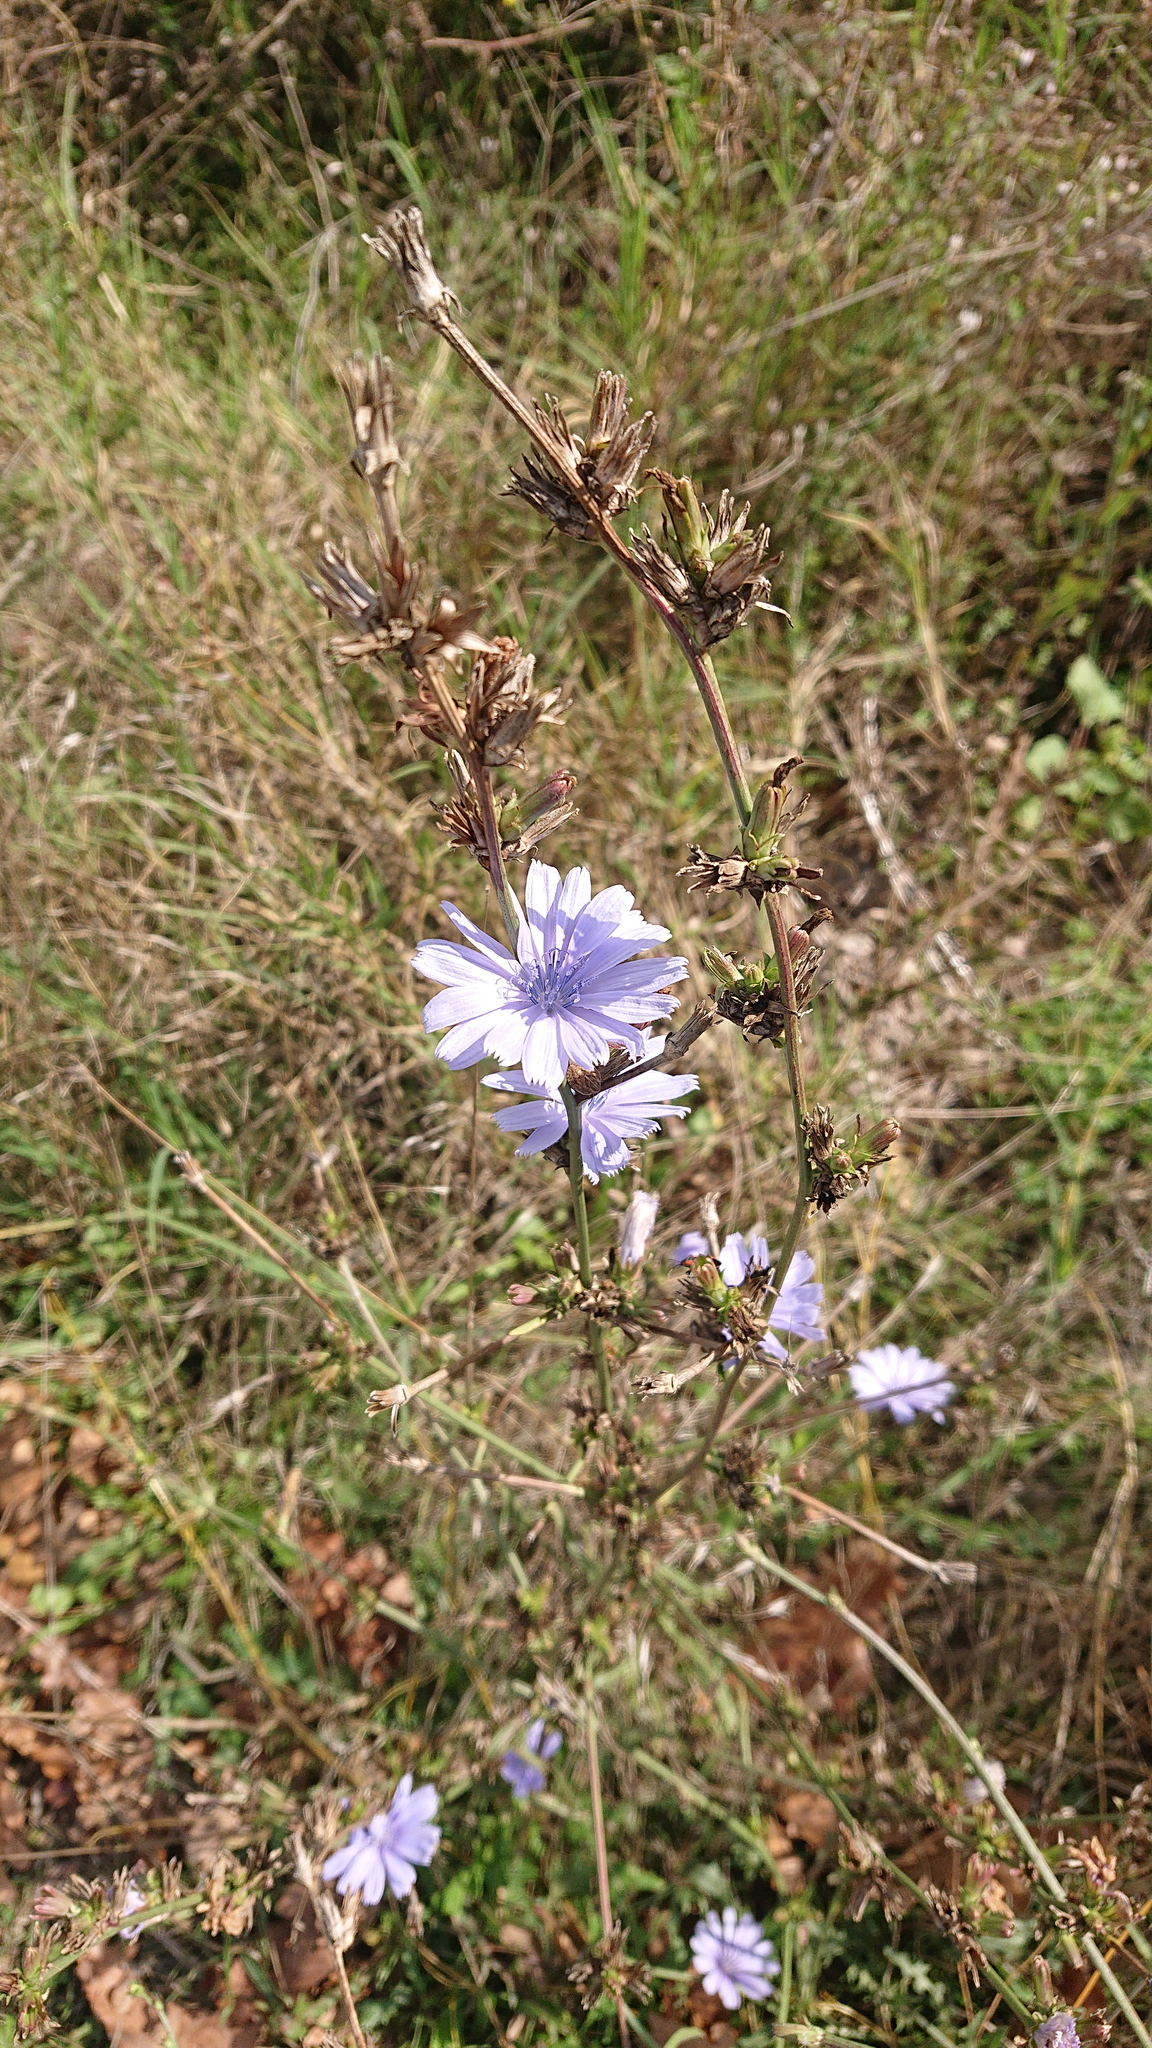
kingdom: Plantae
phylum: Tracheophyta
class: Magnoliopsida
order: Asterales
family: Asteraceae
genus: Cichorium
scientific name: Cichorium intybus
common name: Chicory
